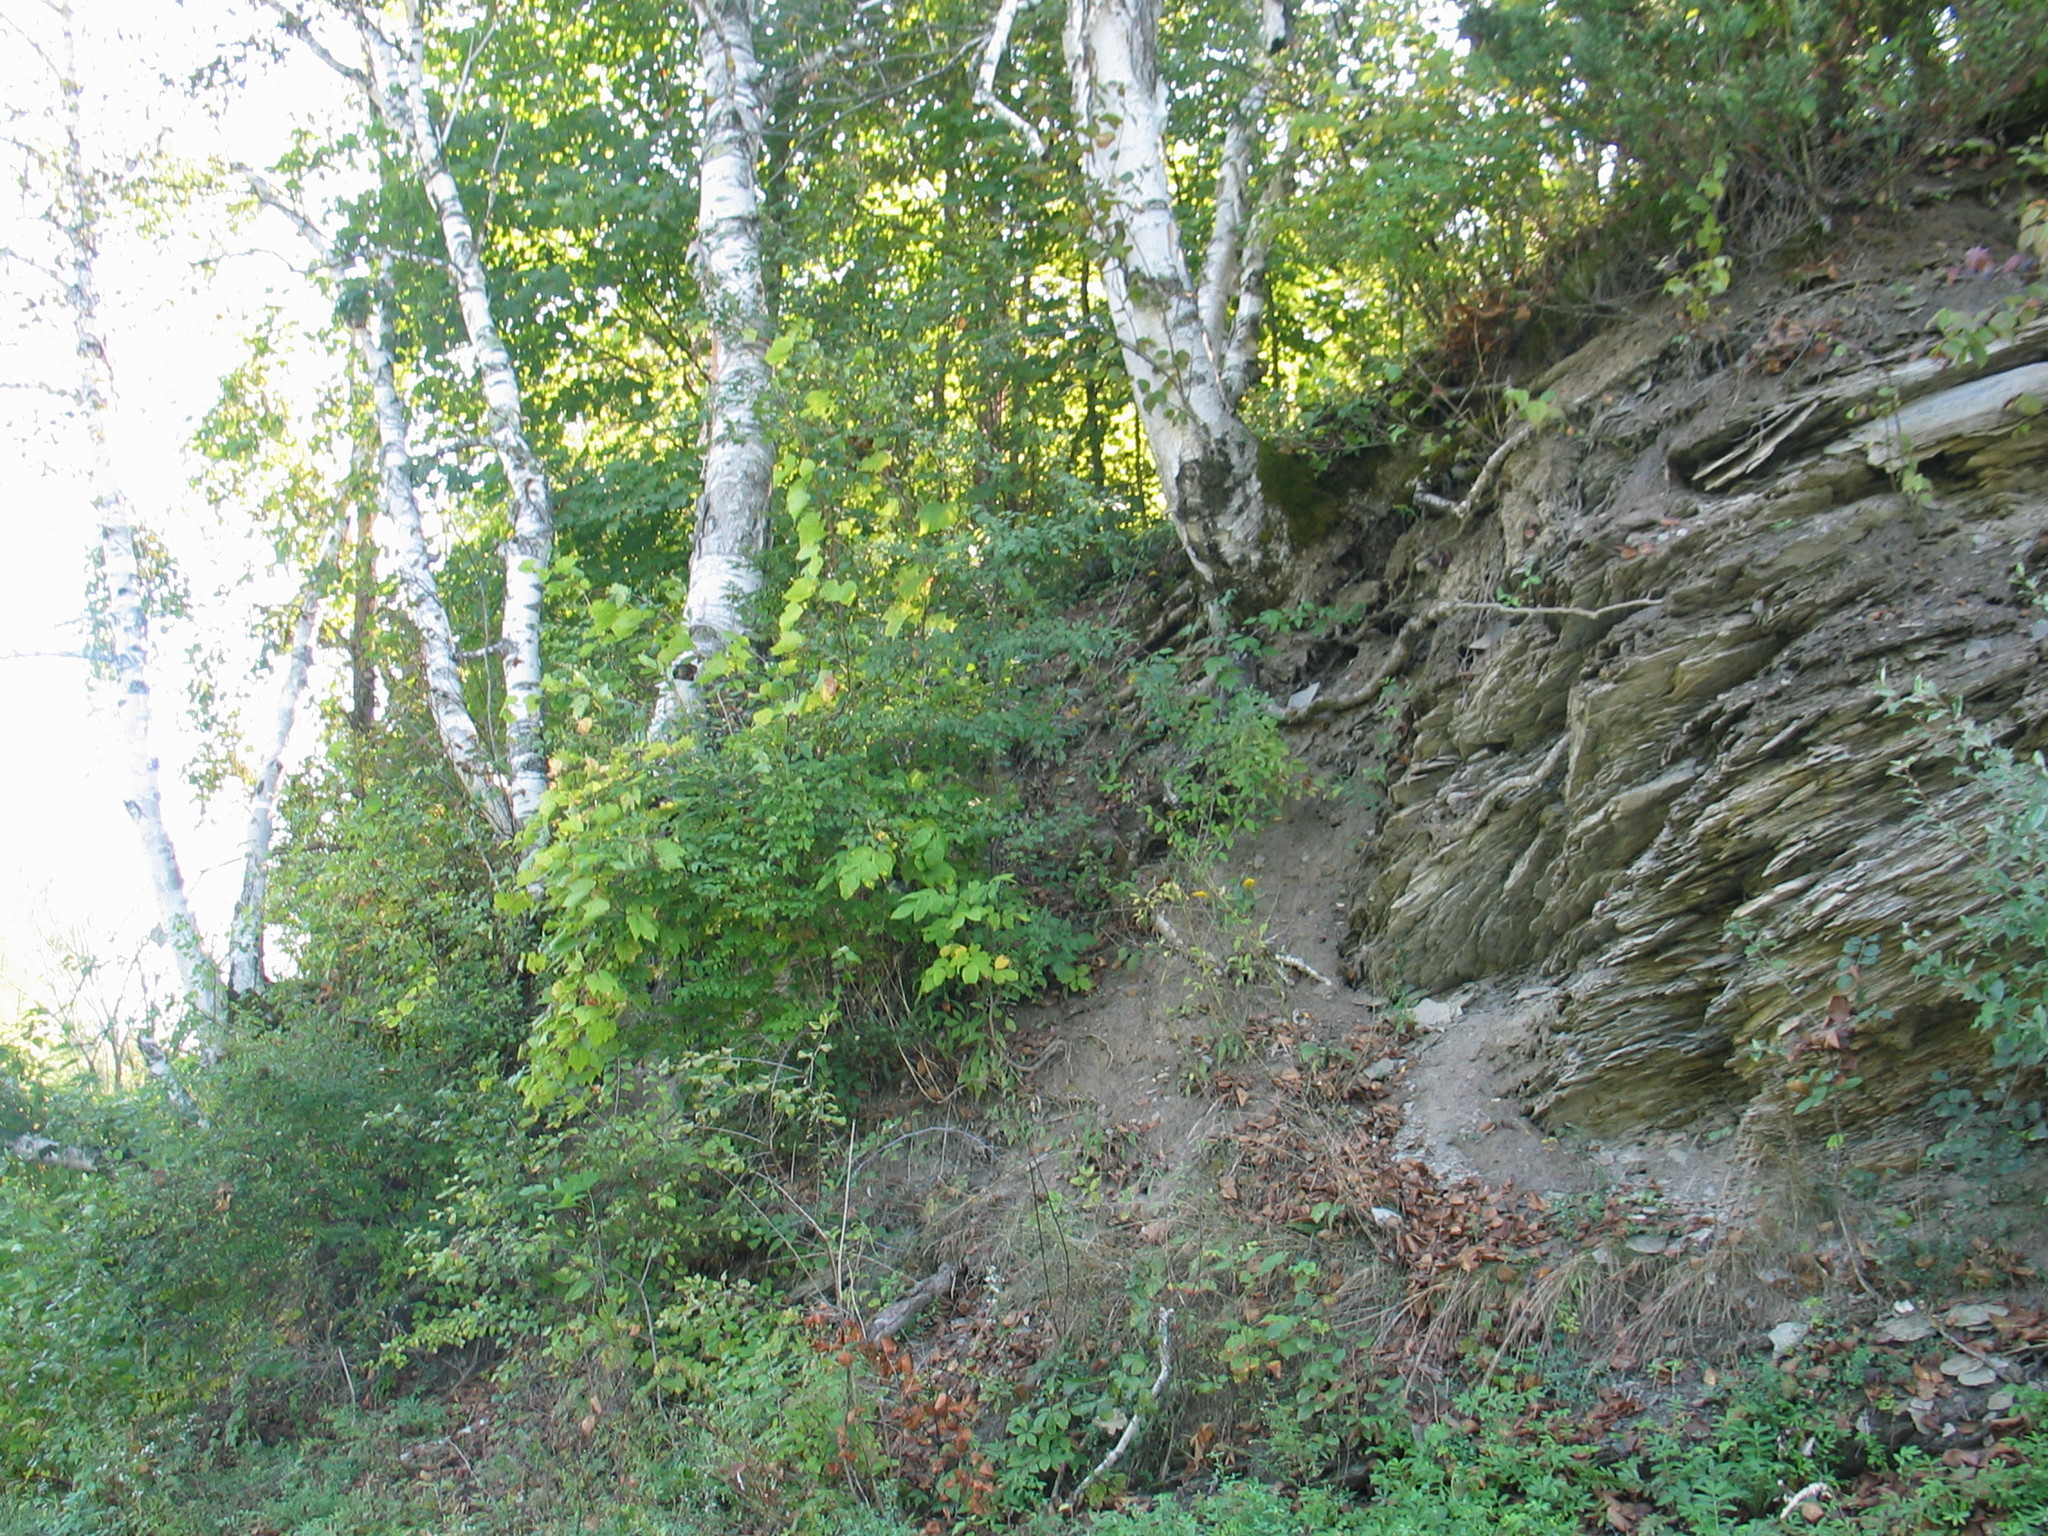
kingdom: Plantae
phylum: Tracheophyta
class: Magnoliopsida
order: Fagales
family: Betulaceae
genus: Betula
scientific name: Betula papyrifera
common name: Paper birch
